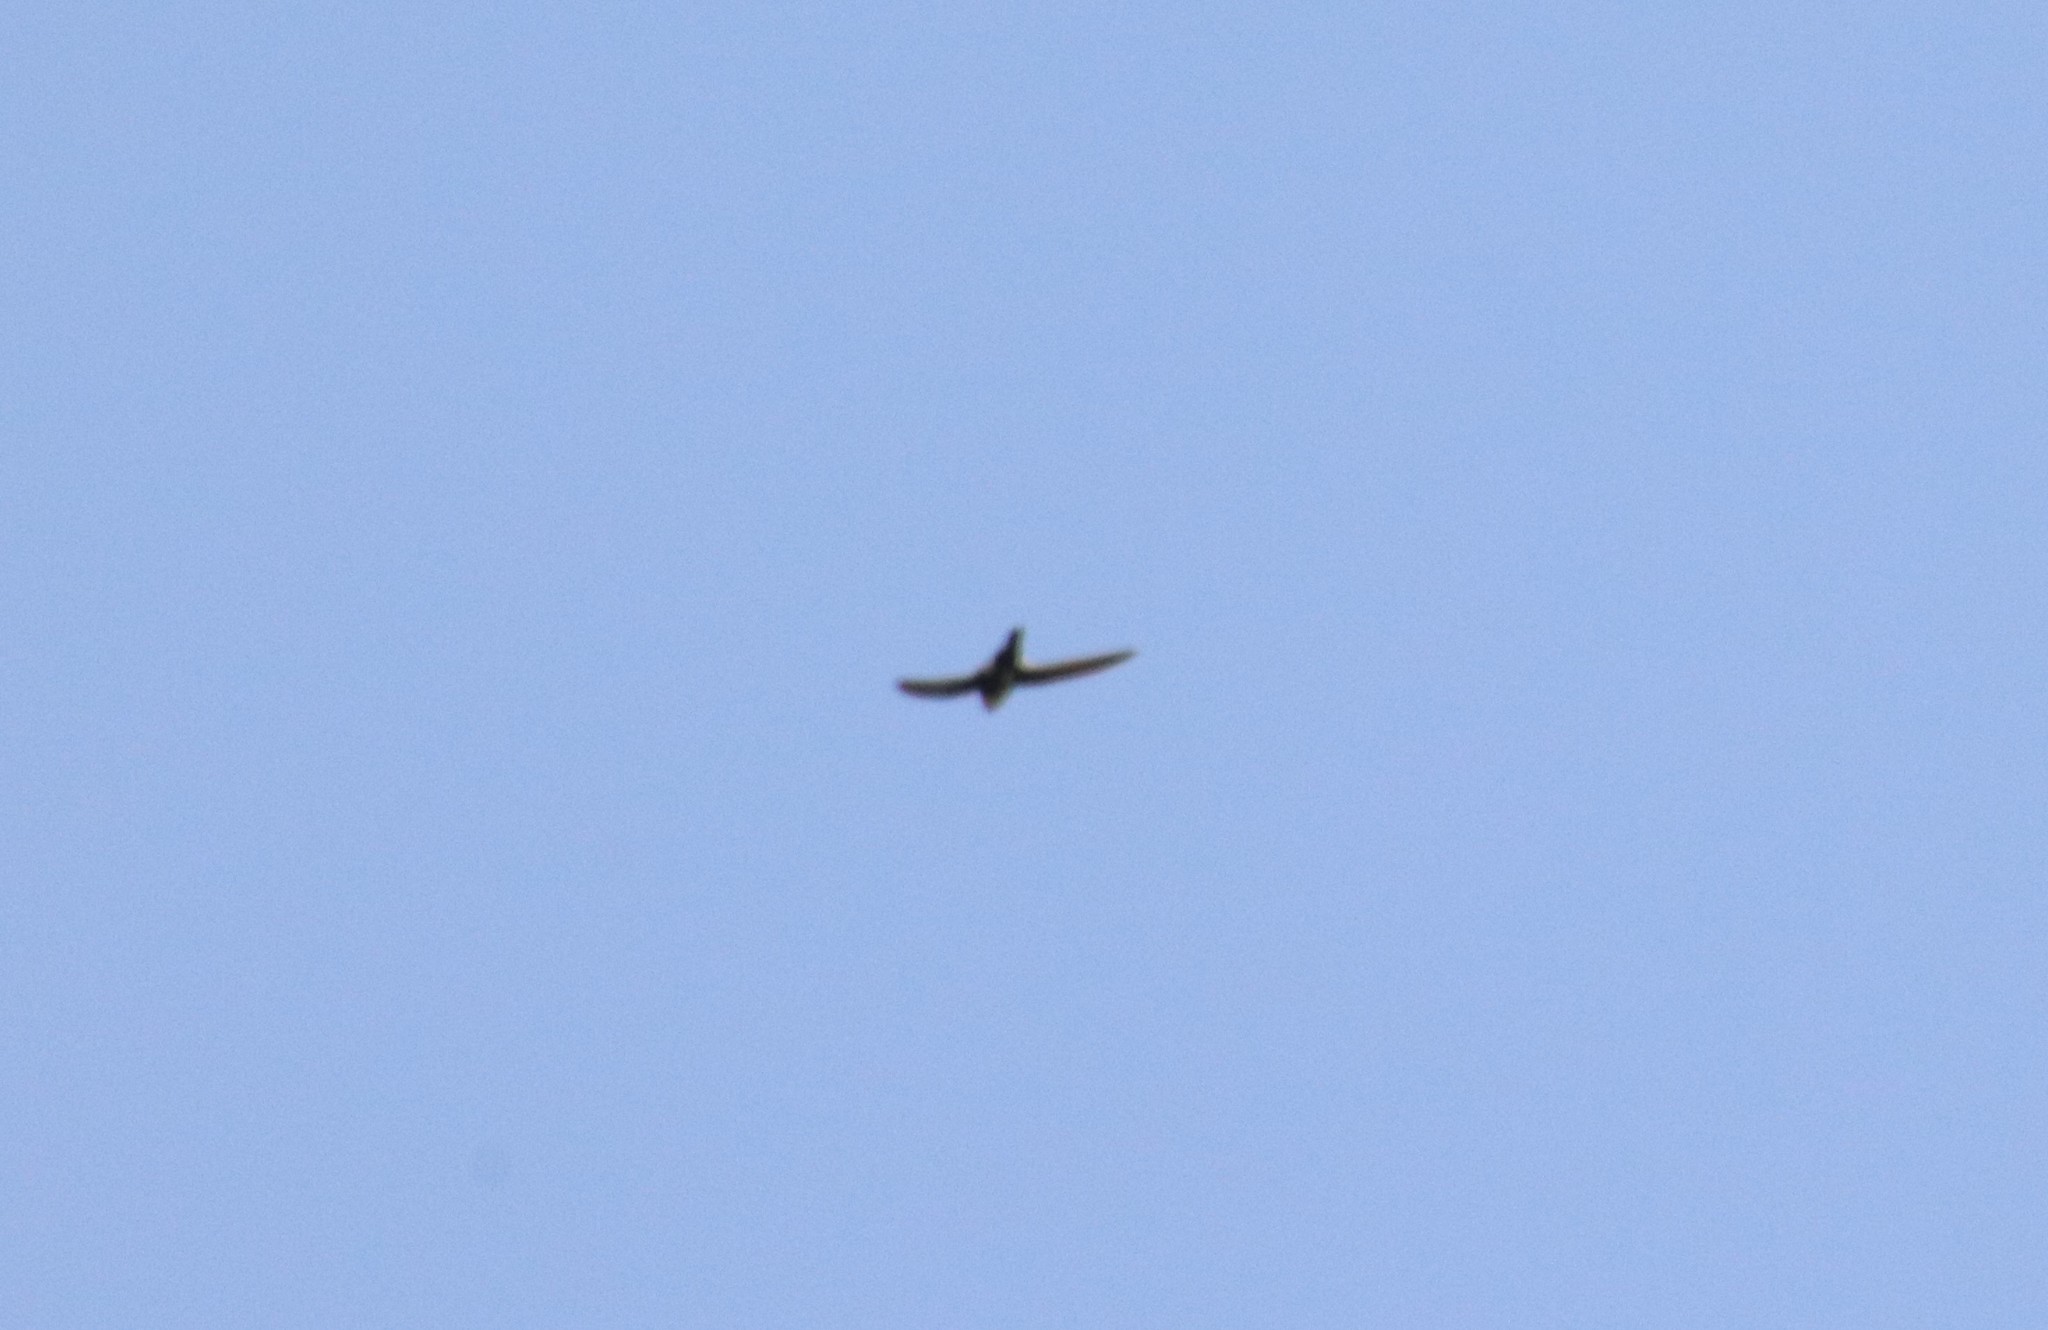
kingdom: Animalia
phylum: Chordata
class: Aves
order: Apodiformes
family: Apodidae
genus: Aeronautes
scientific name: Aeronautes saxatalis
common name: White-throated swift
